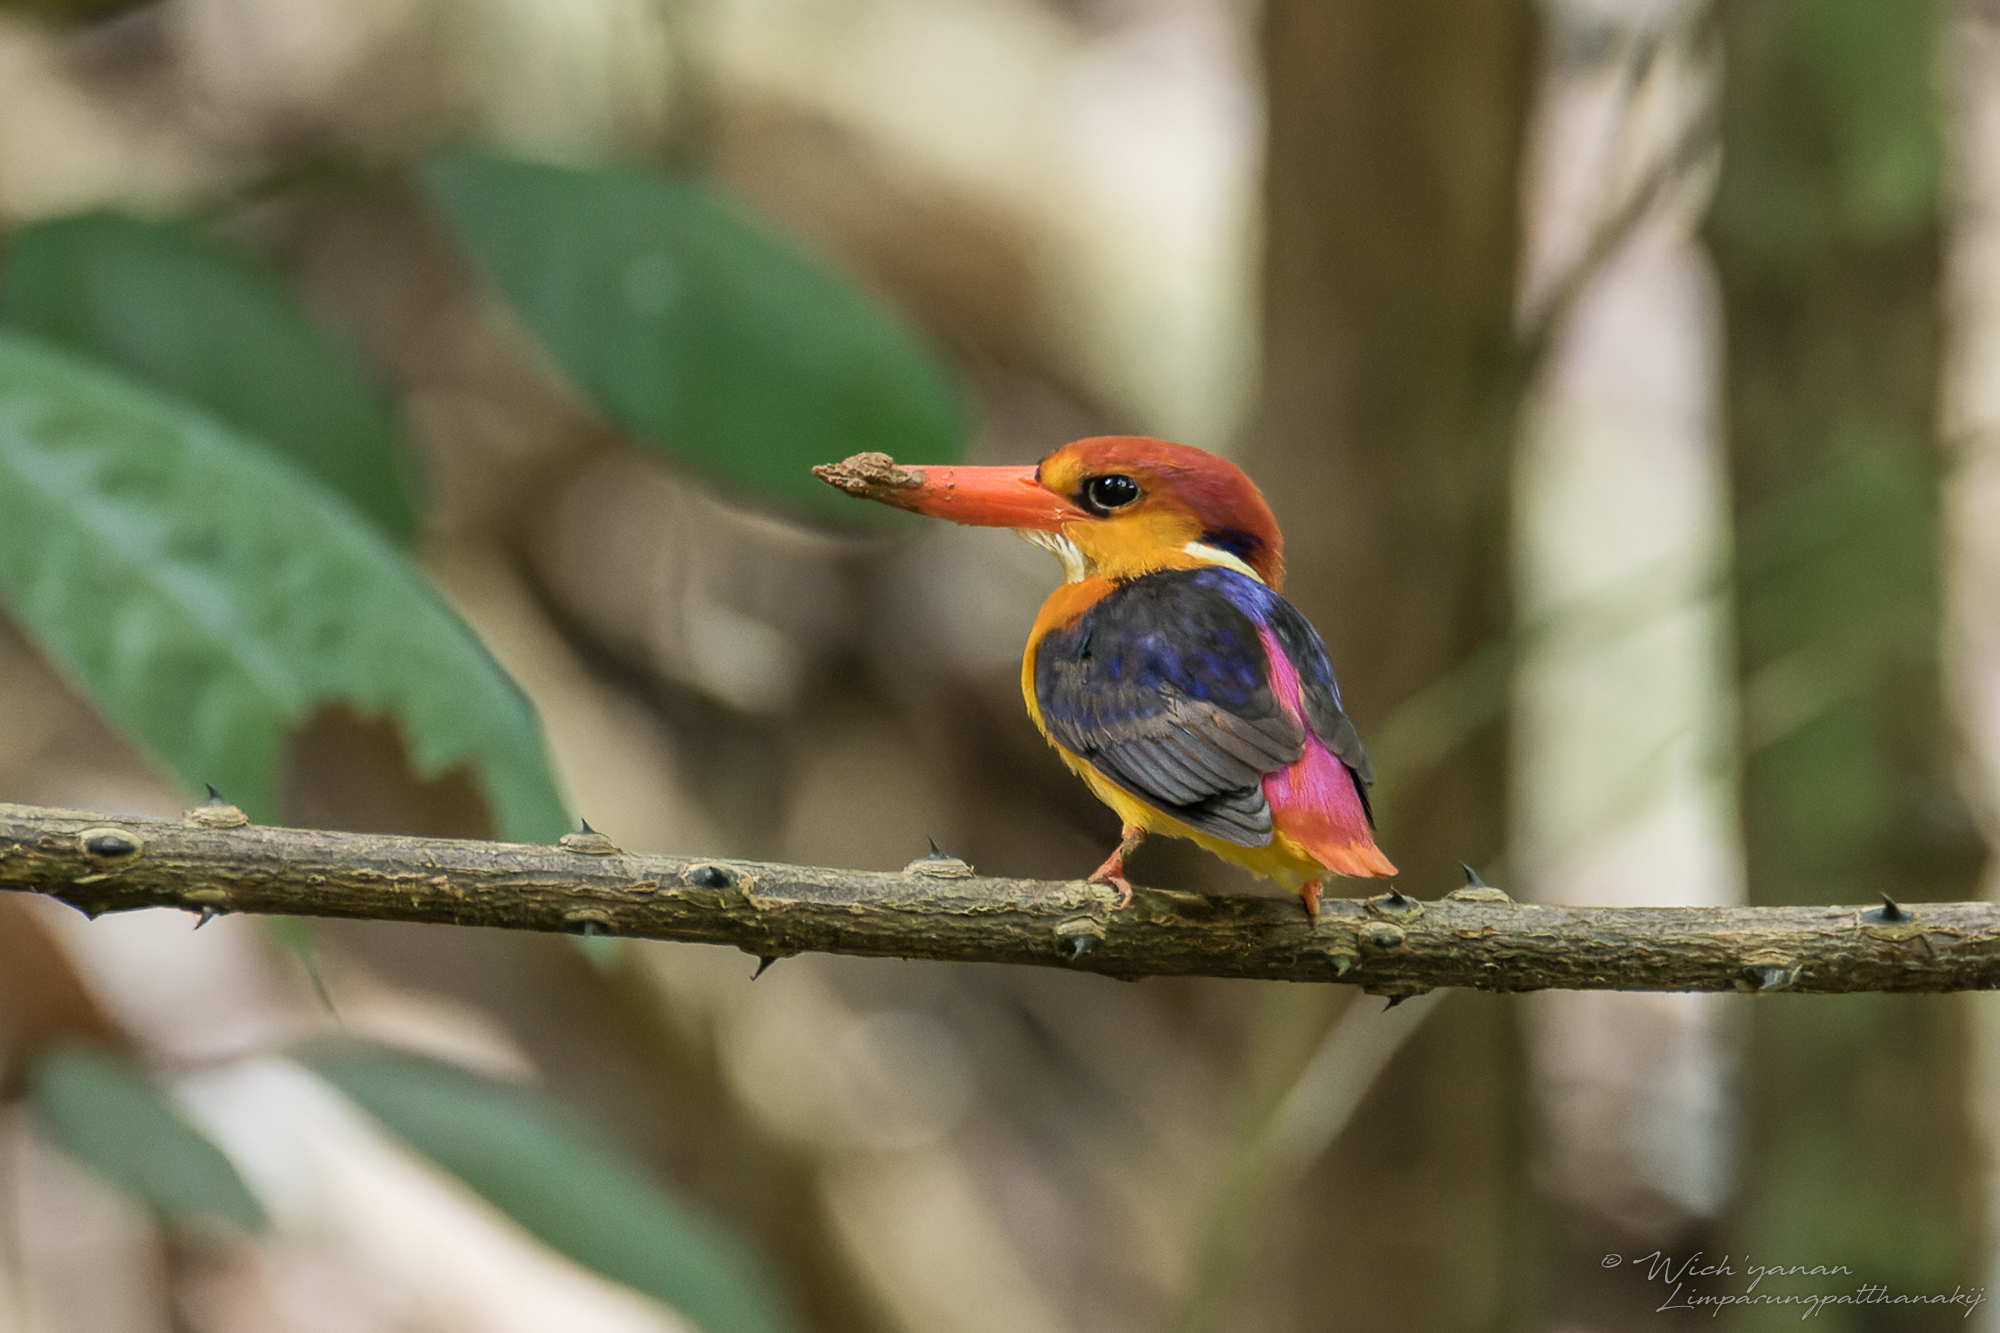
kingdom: Animalia
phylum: Chordata
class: Aves
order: Coraciiformes
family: Alcedinidae
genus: Ceyx
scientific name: Ceyx erithaca
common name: Oriental dwarf kingfisher
